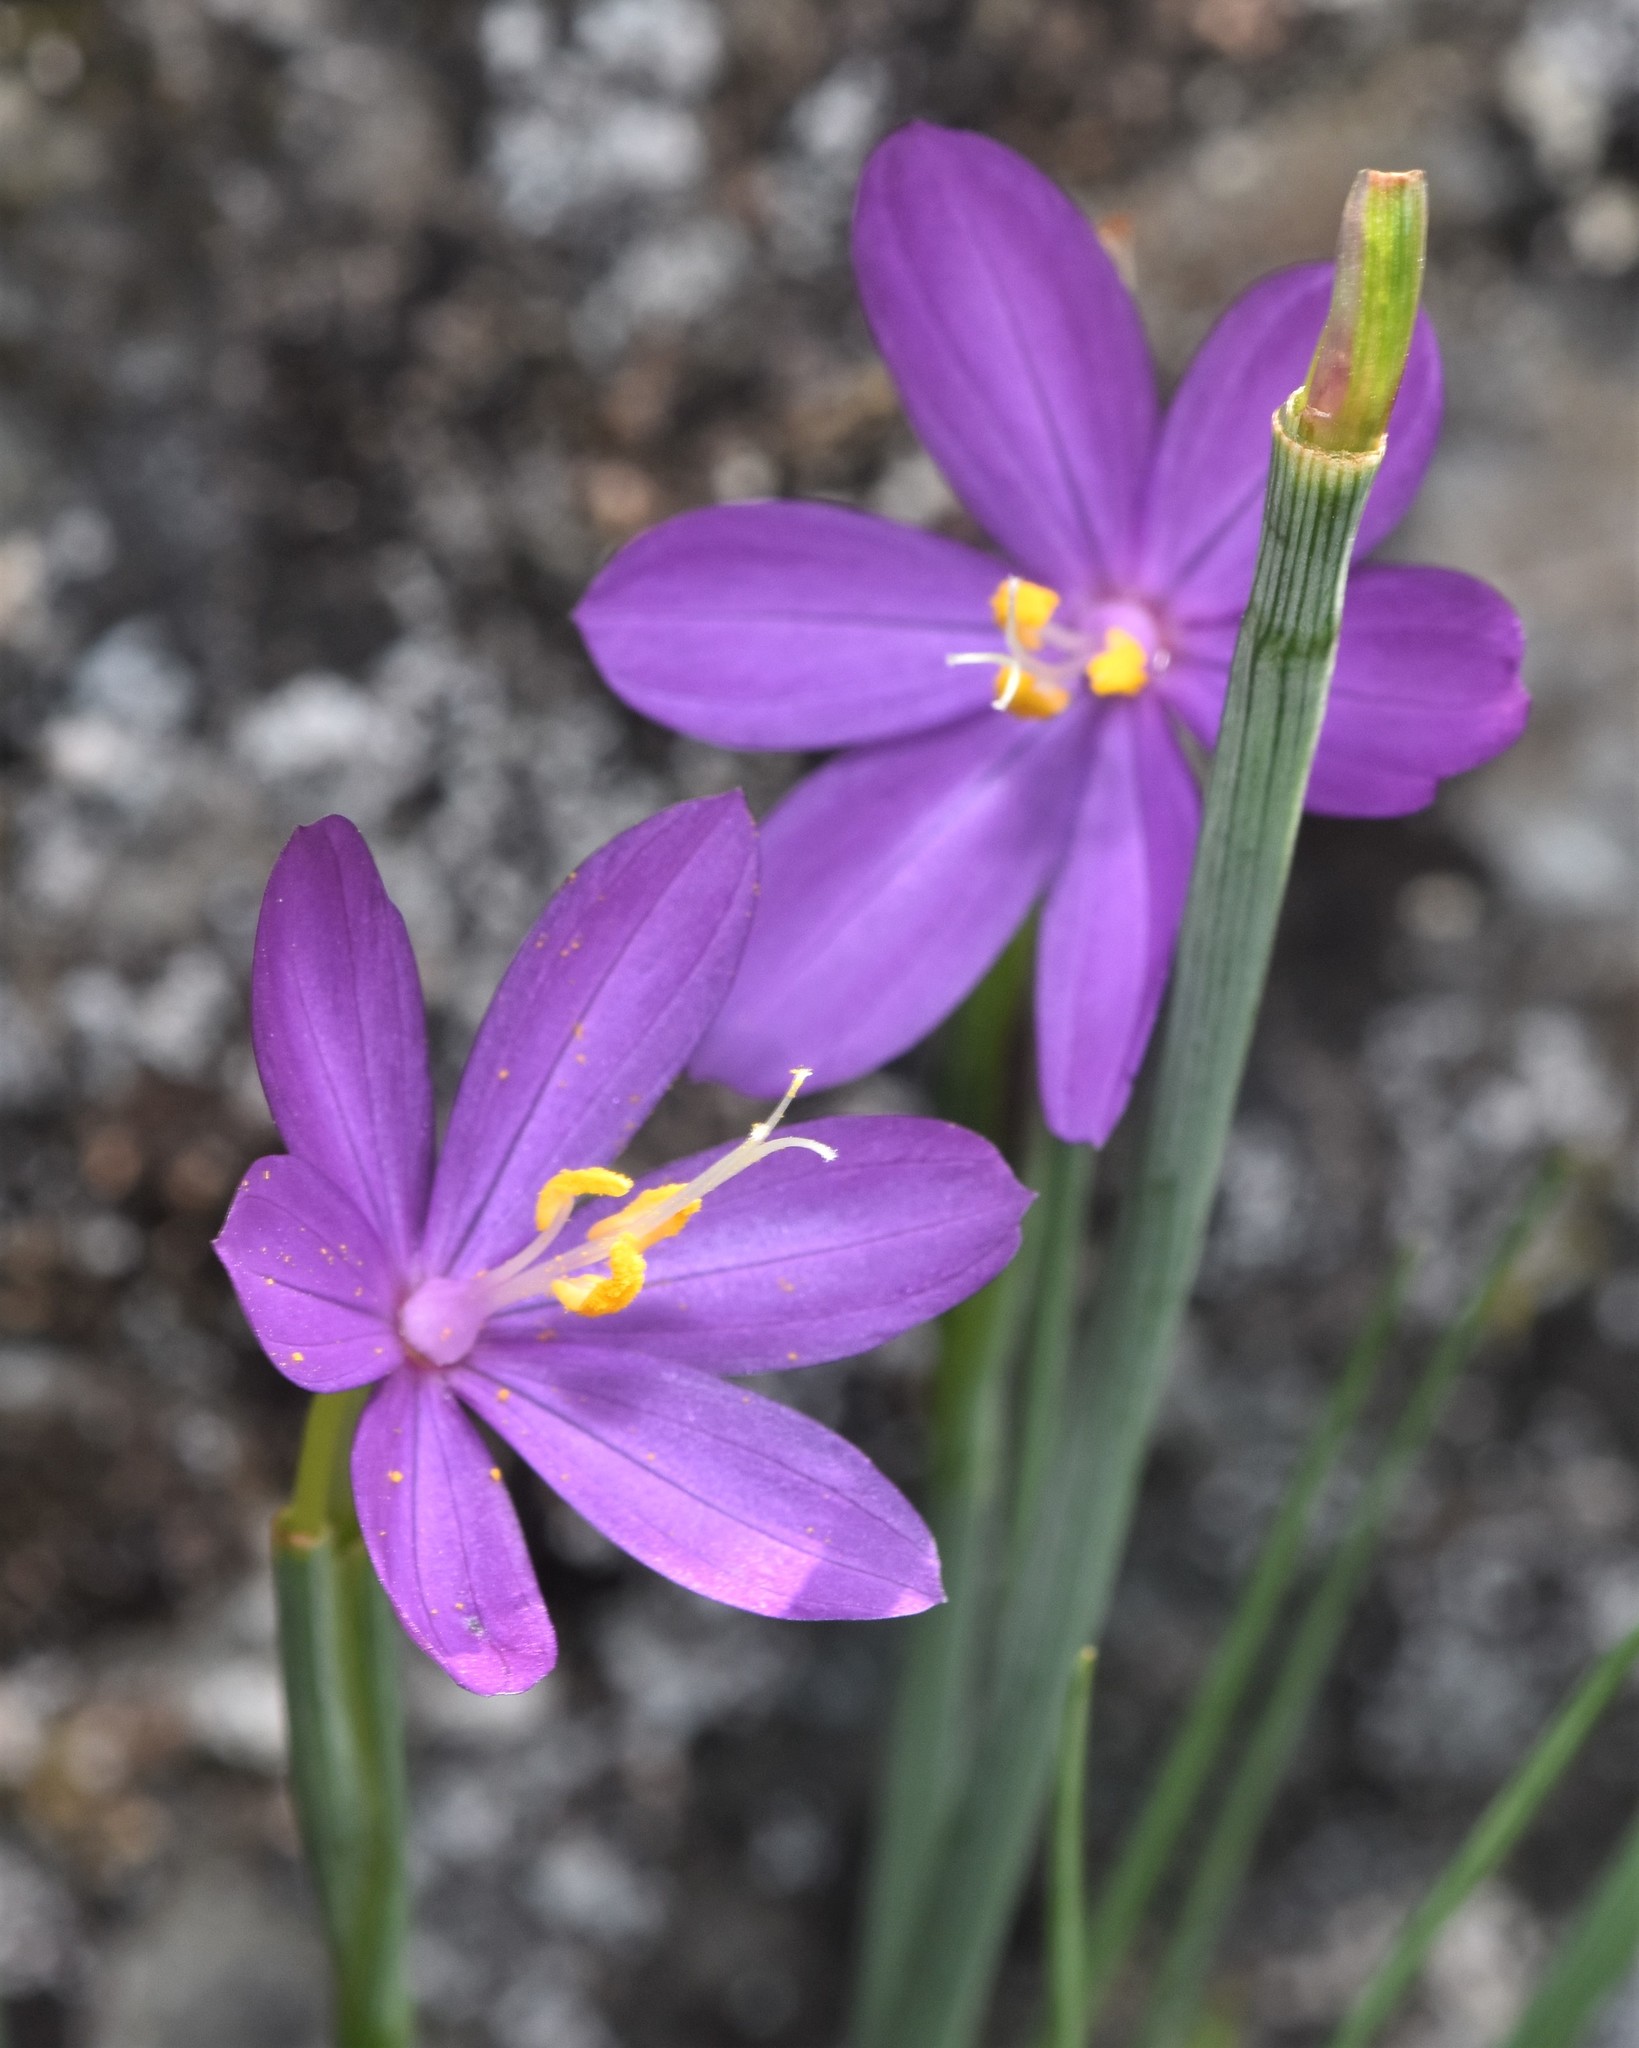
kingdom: Plantae
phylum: Tracheophyta
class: Liliopsida
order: Asparagales
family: Iridaceae
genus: Olsynium
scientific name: Olsynium douglasii
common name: Douglas' grasswidow
